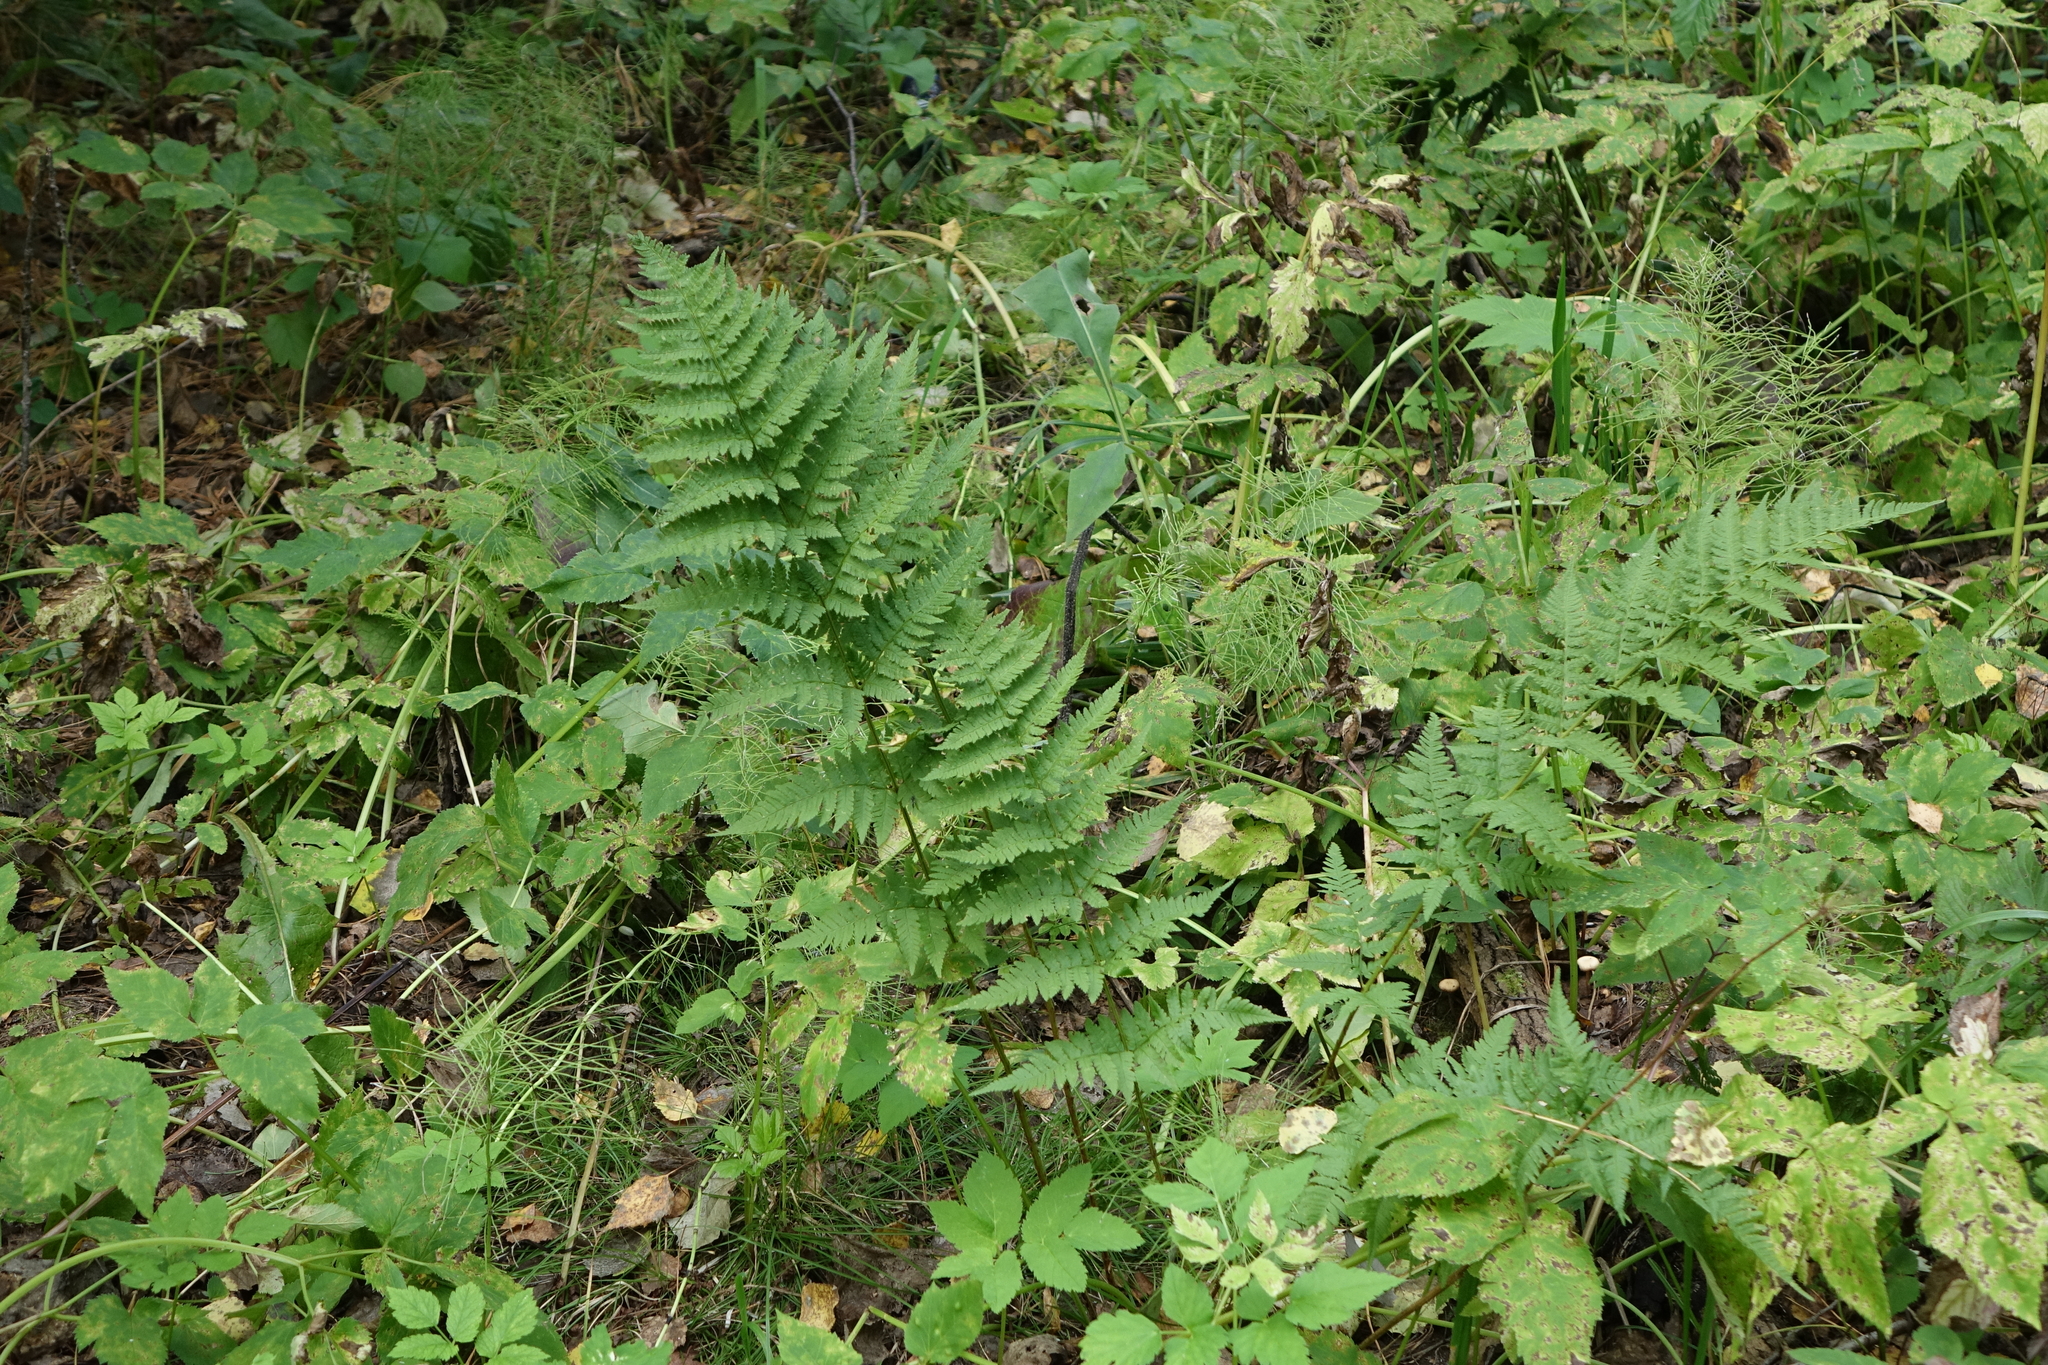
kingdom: Plantae
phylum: Tracheophyta
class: Polypodiopsida
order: Polypodiales
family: Dryopteridaceae
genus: Dryopteris
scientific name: Dryopteris carthusiana
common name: Narrow buckler-fern
